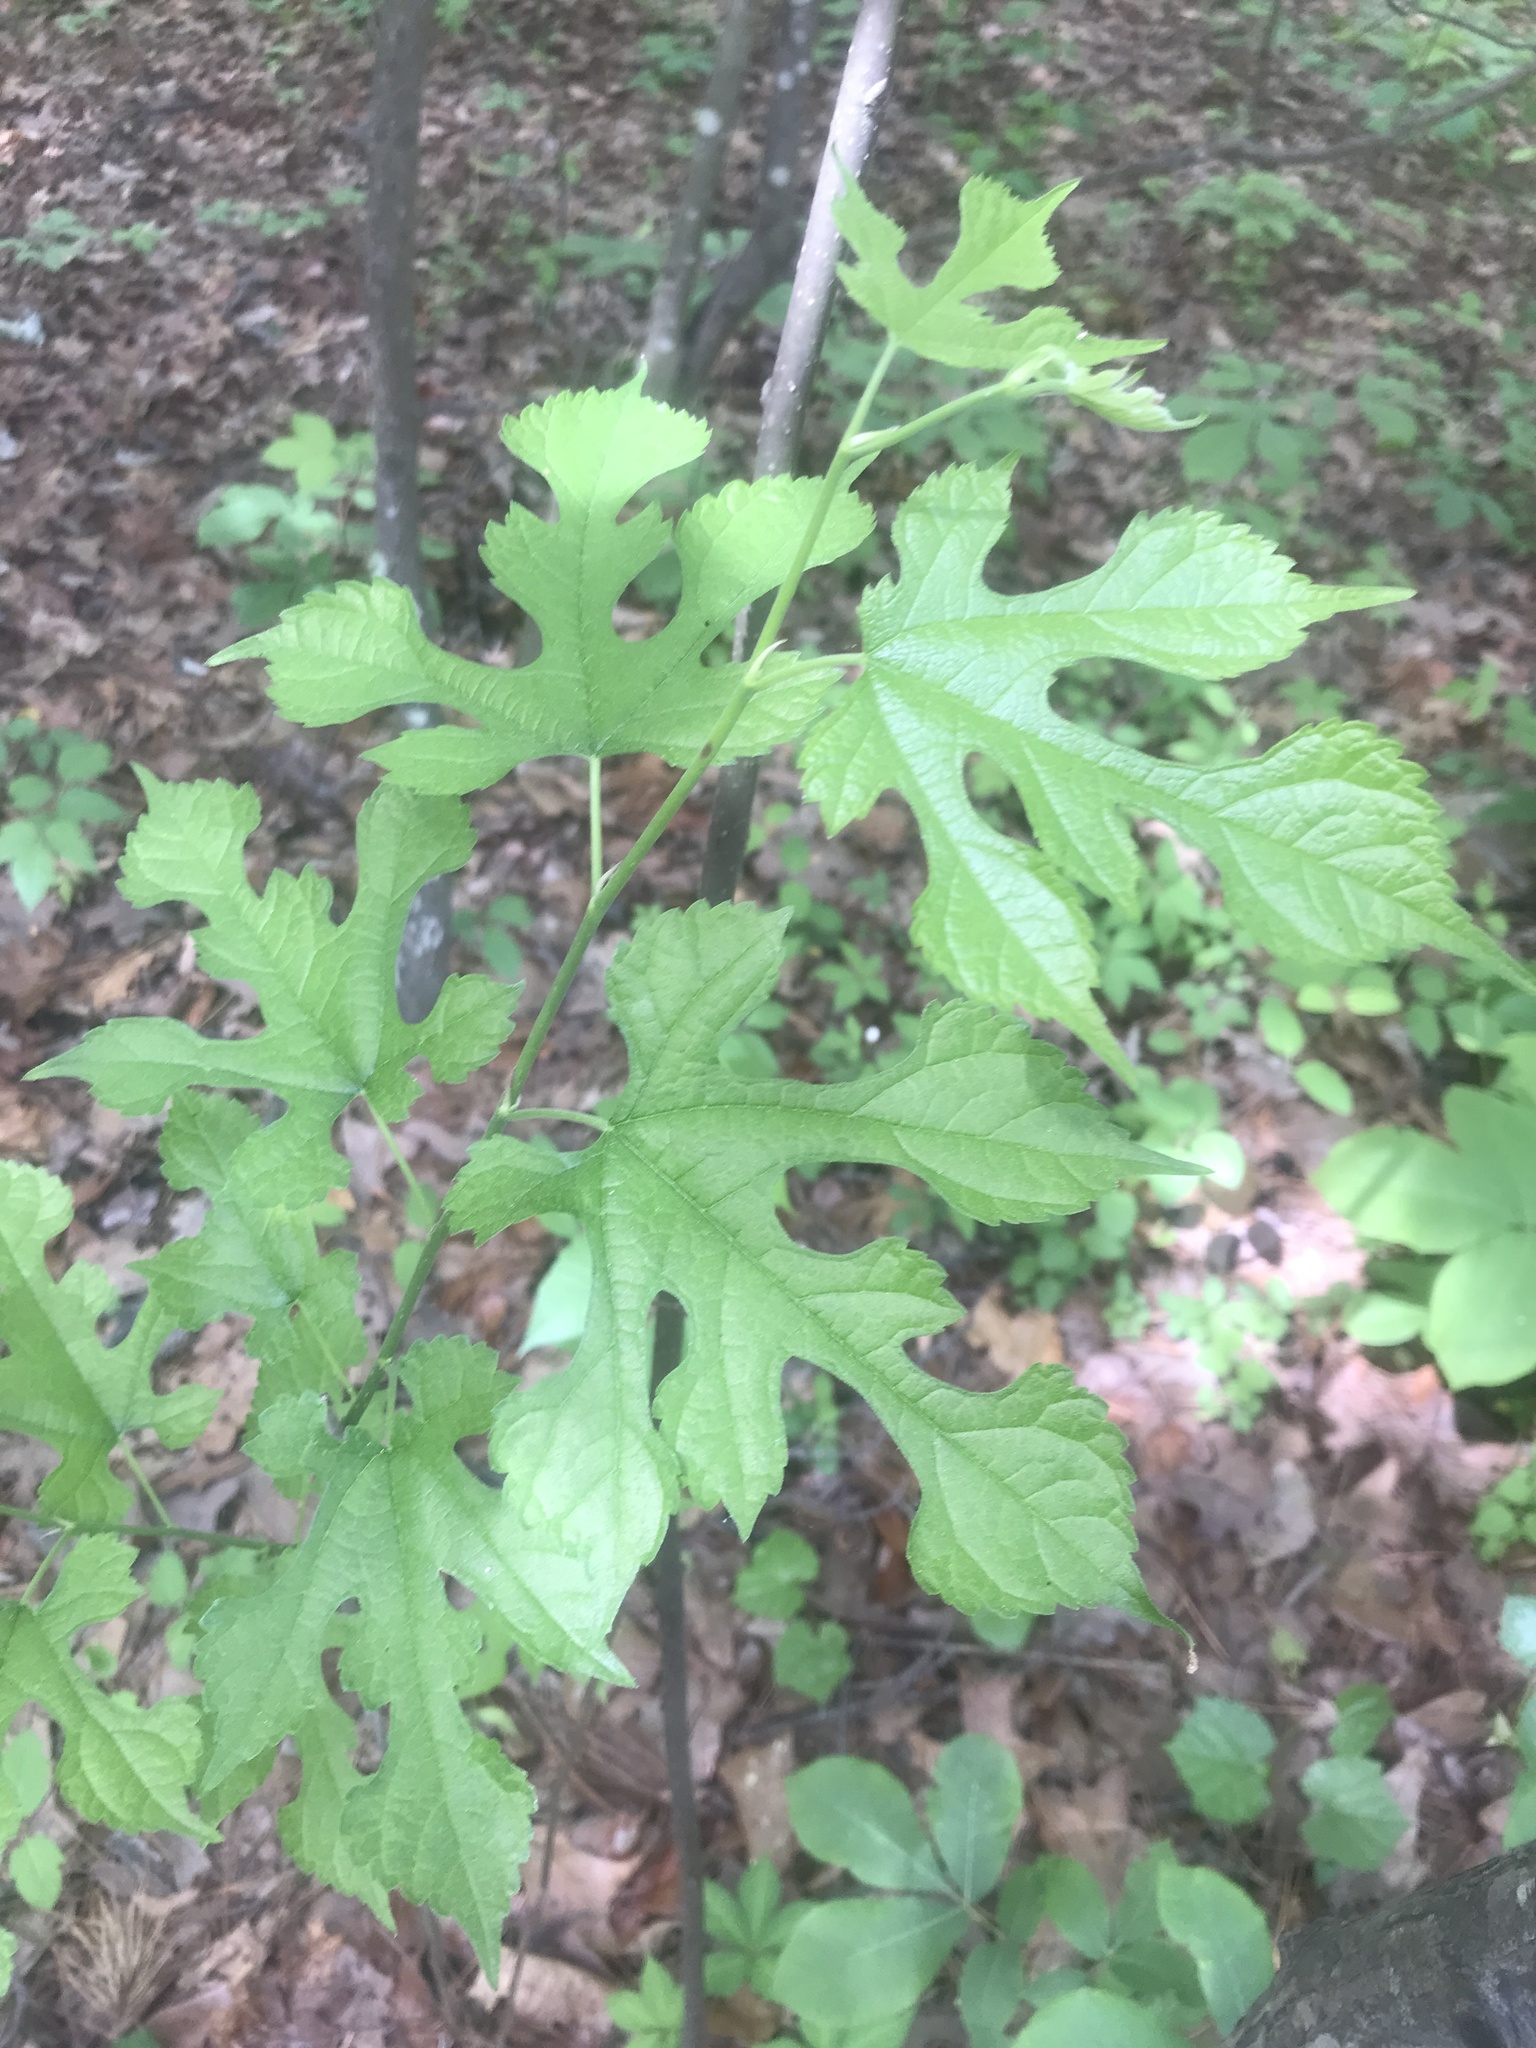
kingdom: Plantae
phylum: Tracheophyta
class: Magnoliopsida
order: Rosales
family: Moraceae
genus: Morus
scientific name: Morus rubra
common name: Red mulberry
